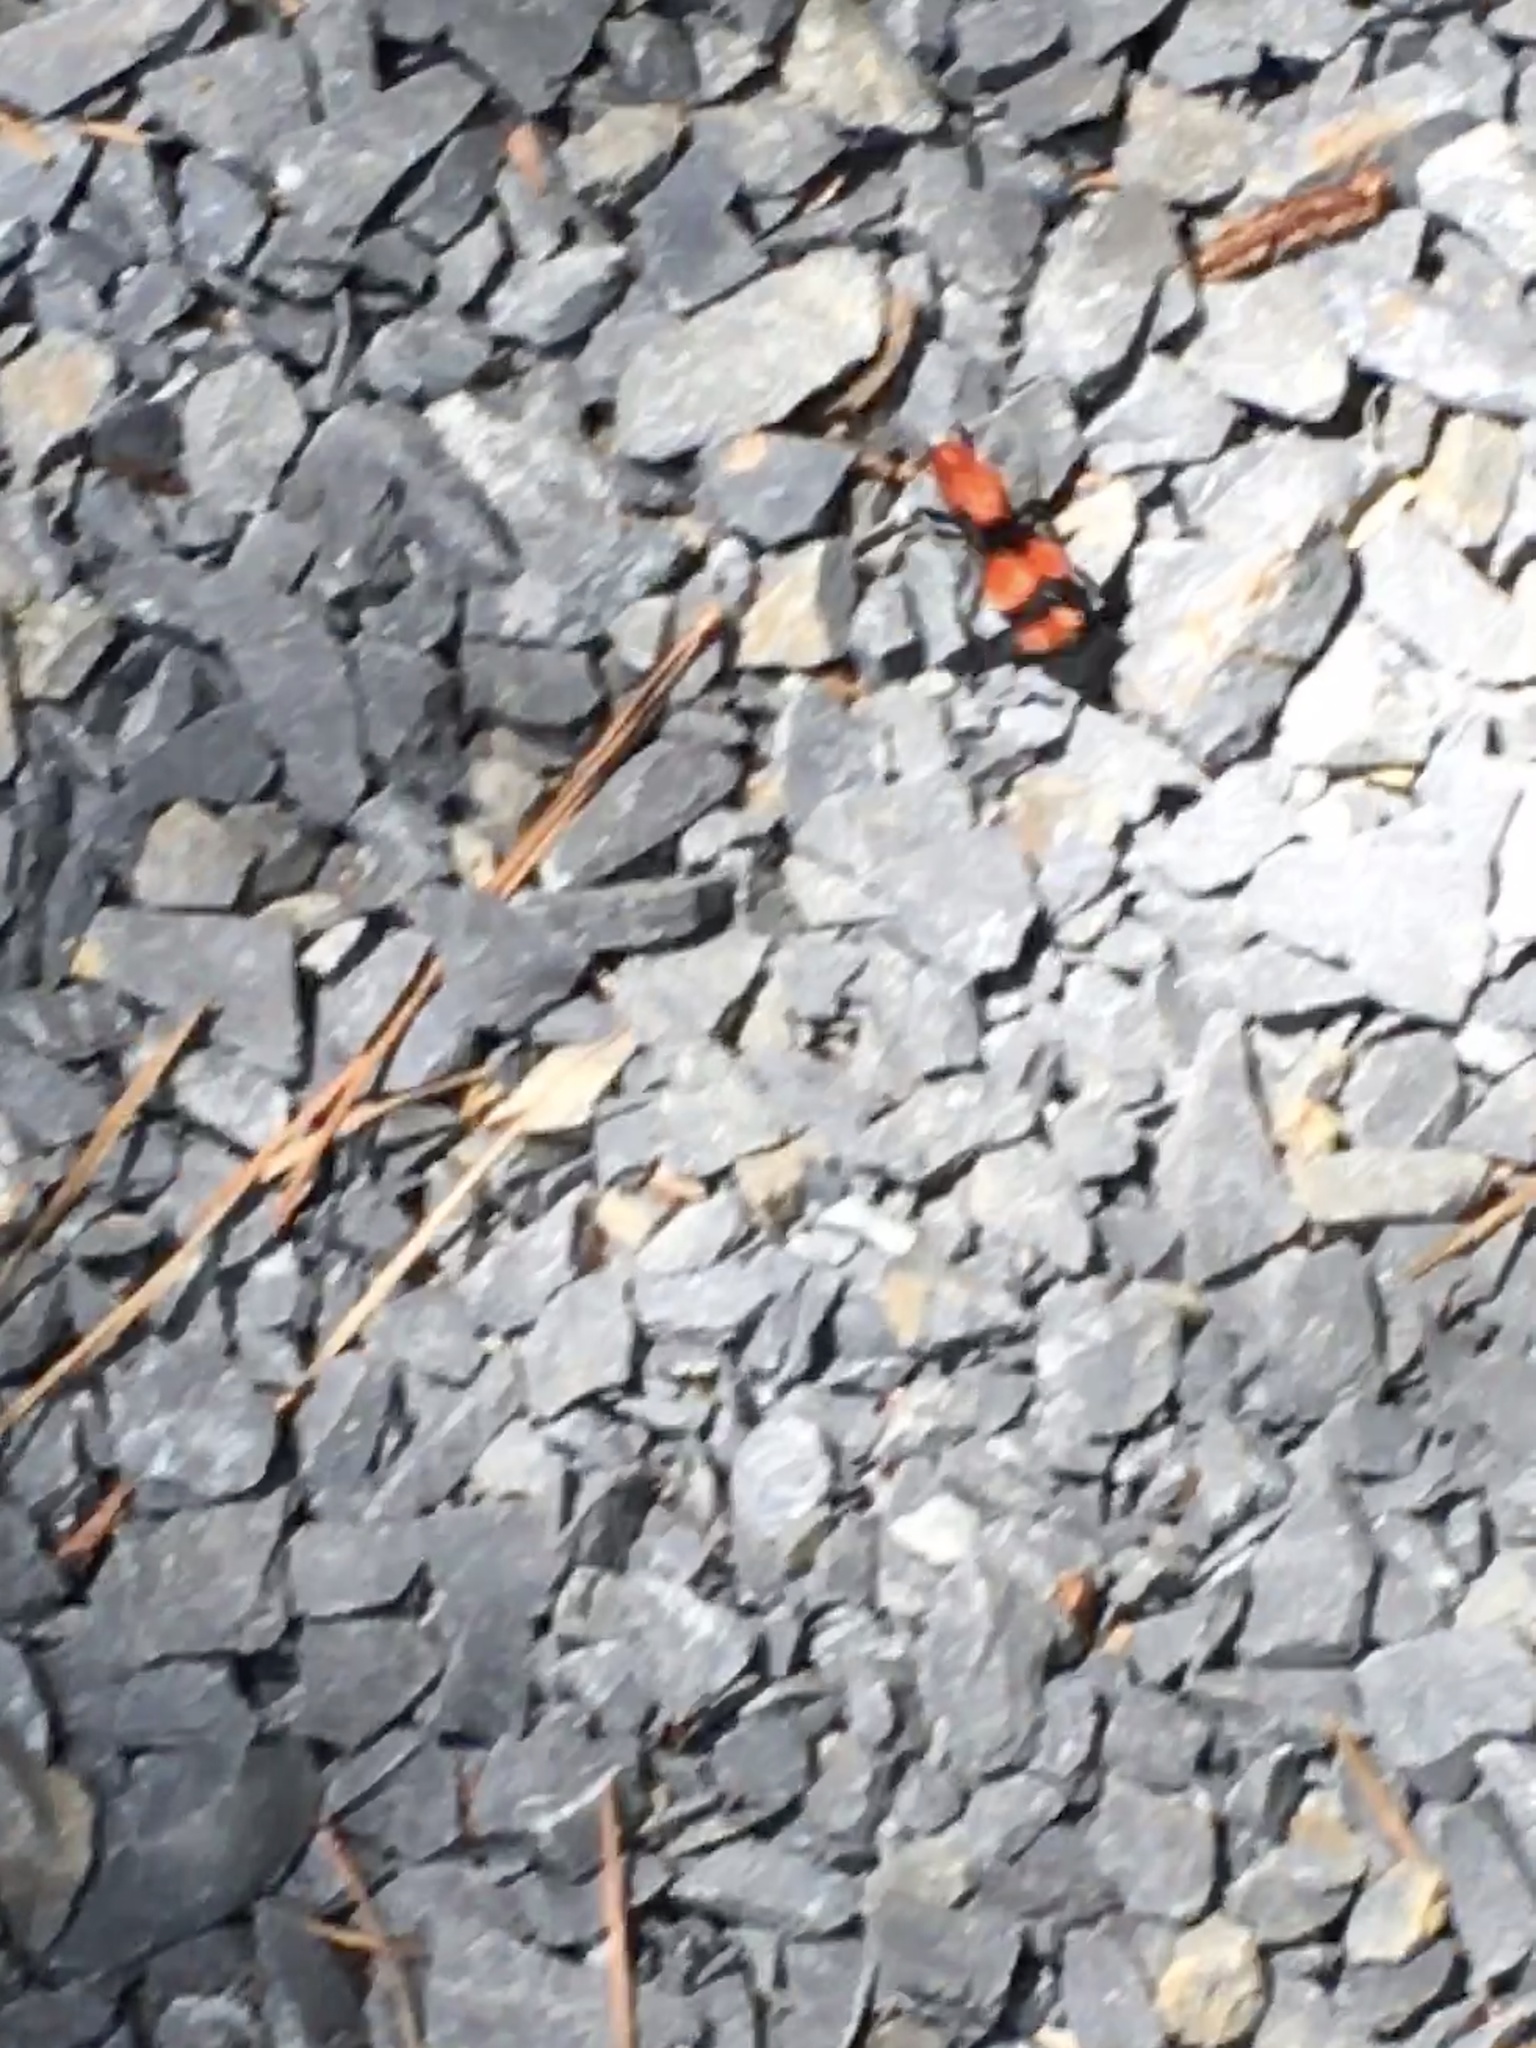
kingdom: Animalia
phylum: Arthropoda
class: Insecta
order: Hymenoptera
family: Mutillidae
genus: Dasymutilla
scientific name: Dasymutilla occidentalis
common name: Common eastern velvet ant
